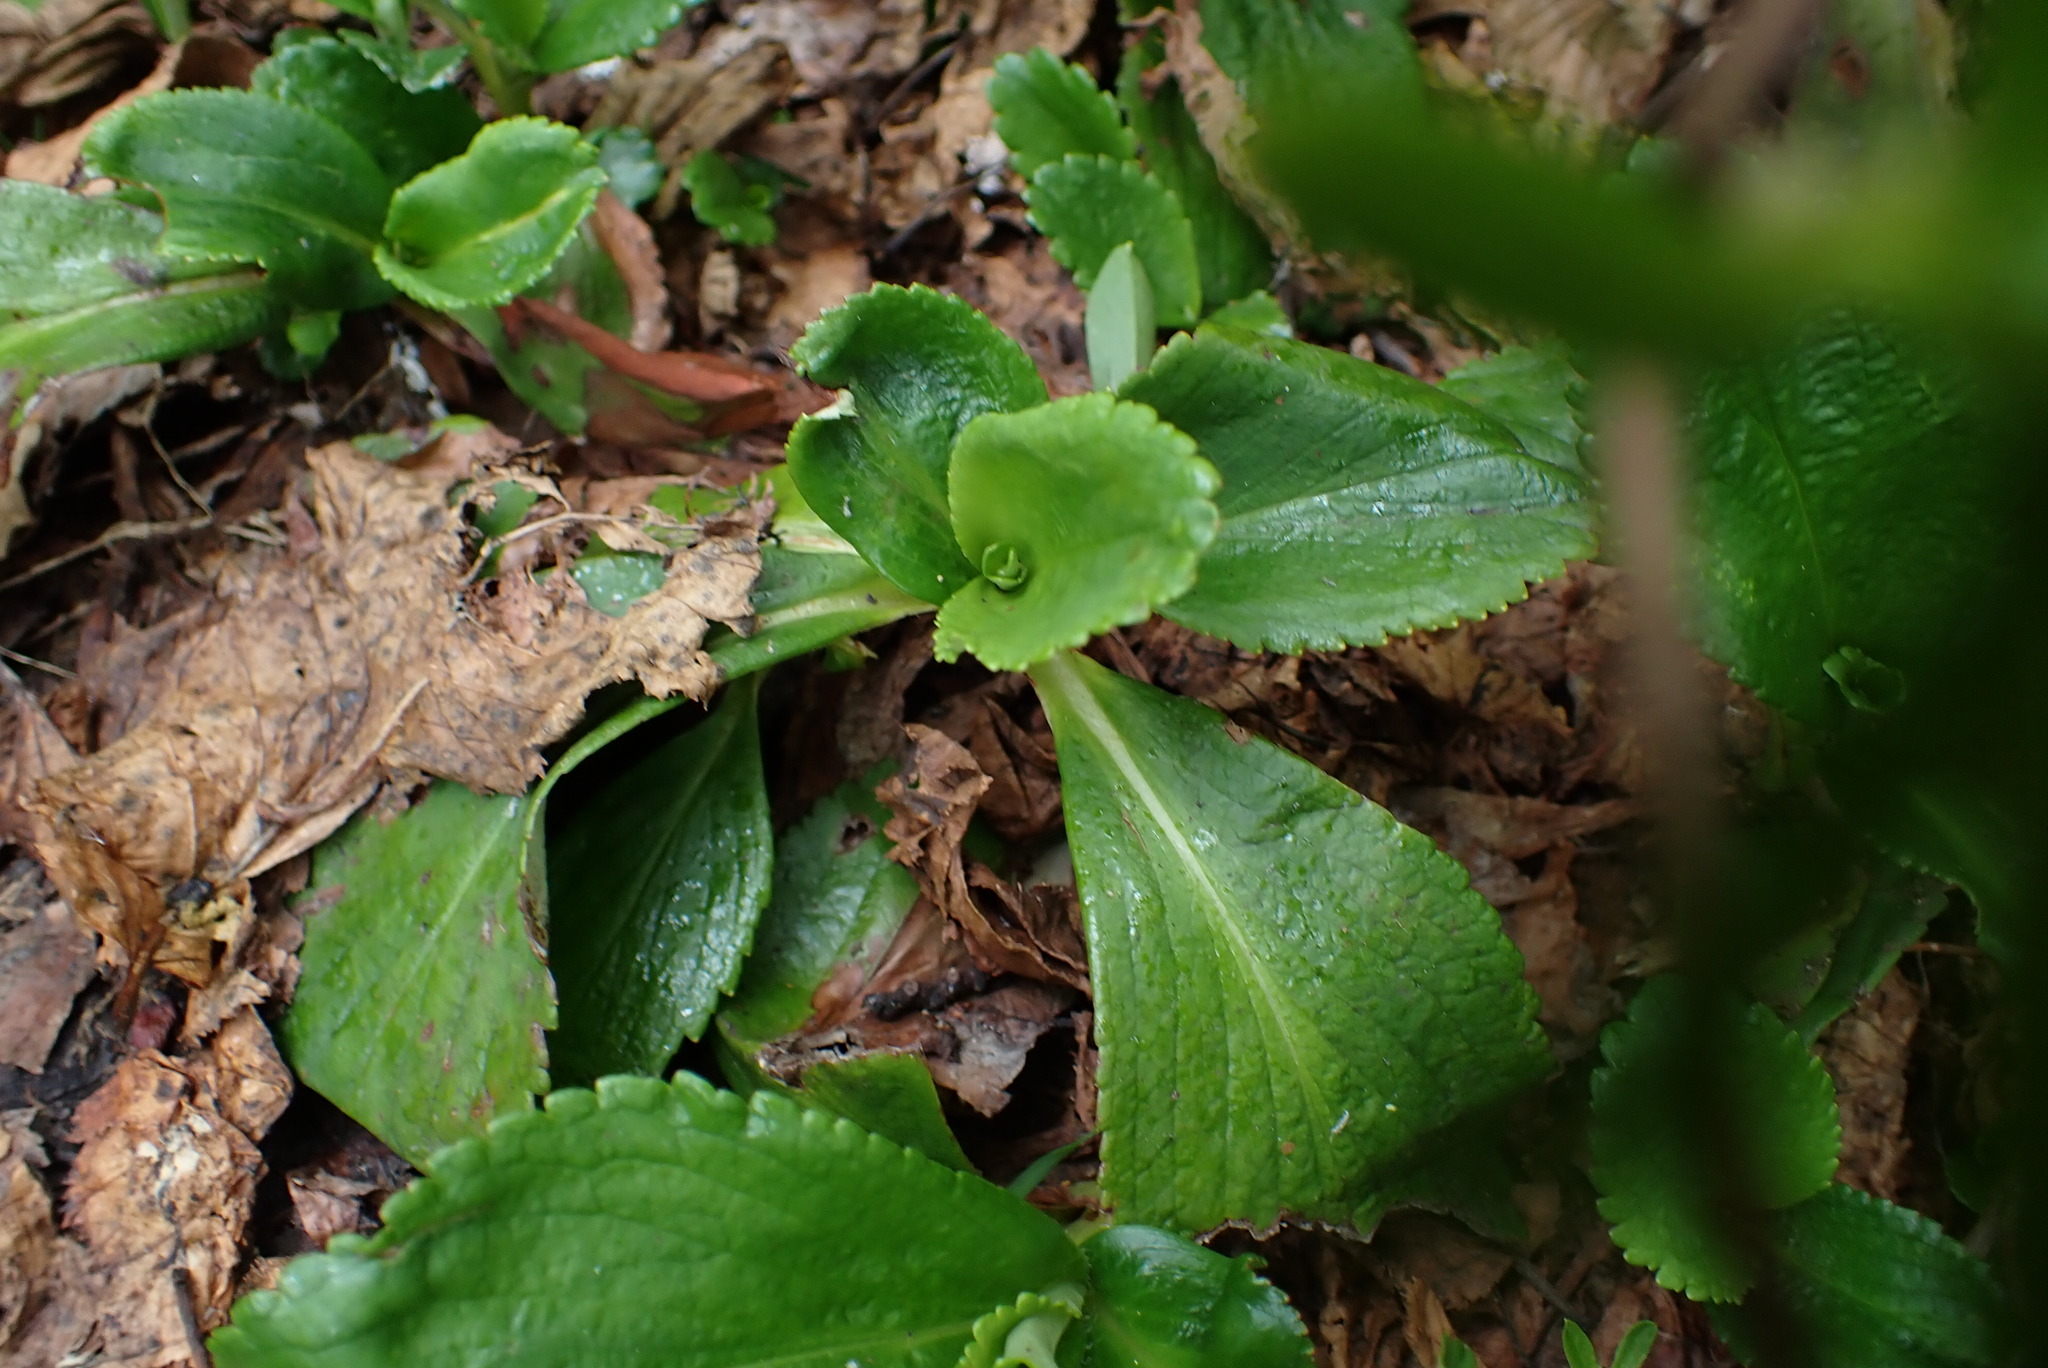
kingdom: Plantae
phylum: Tracheophyta
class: Magnoliopsida
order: Saxifragales
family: Saxifragaceae
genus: Leptarrhena
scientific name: Leptarrhena pyrolifolia
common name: Leatherleaf-saxifrage
